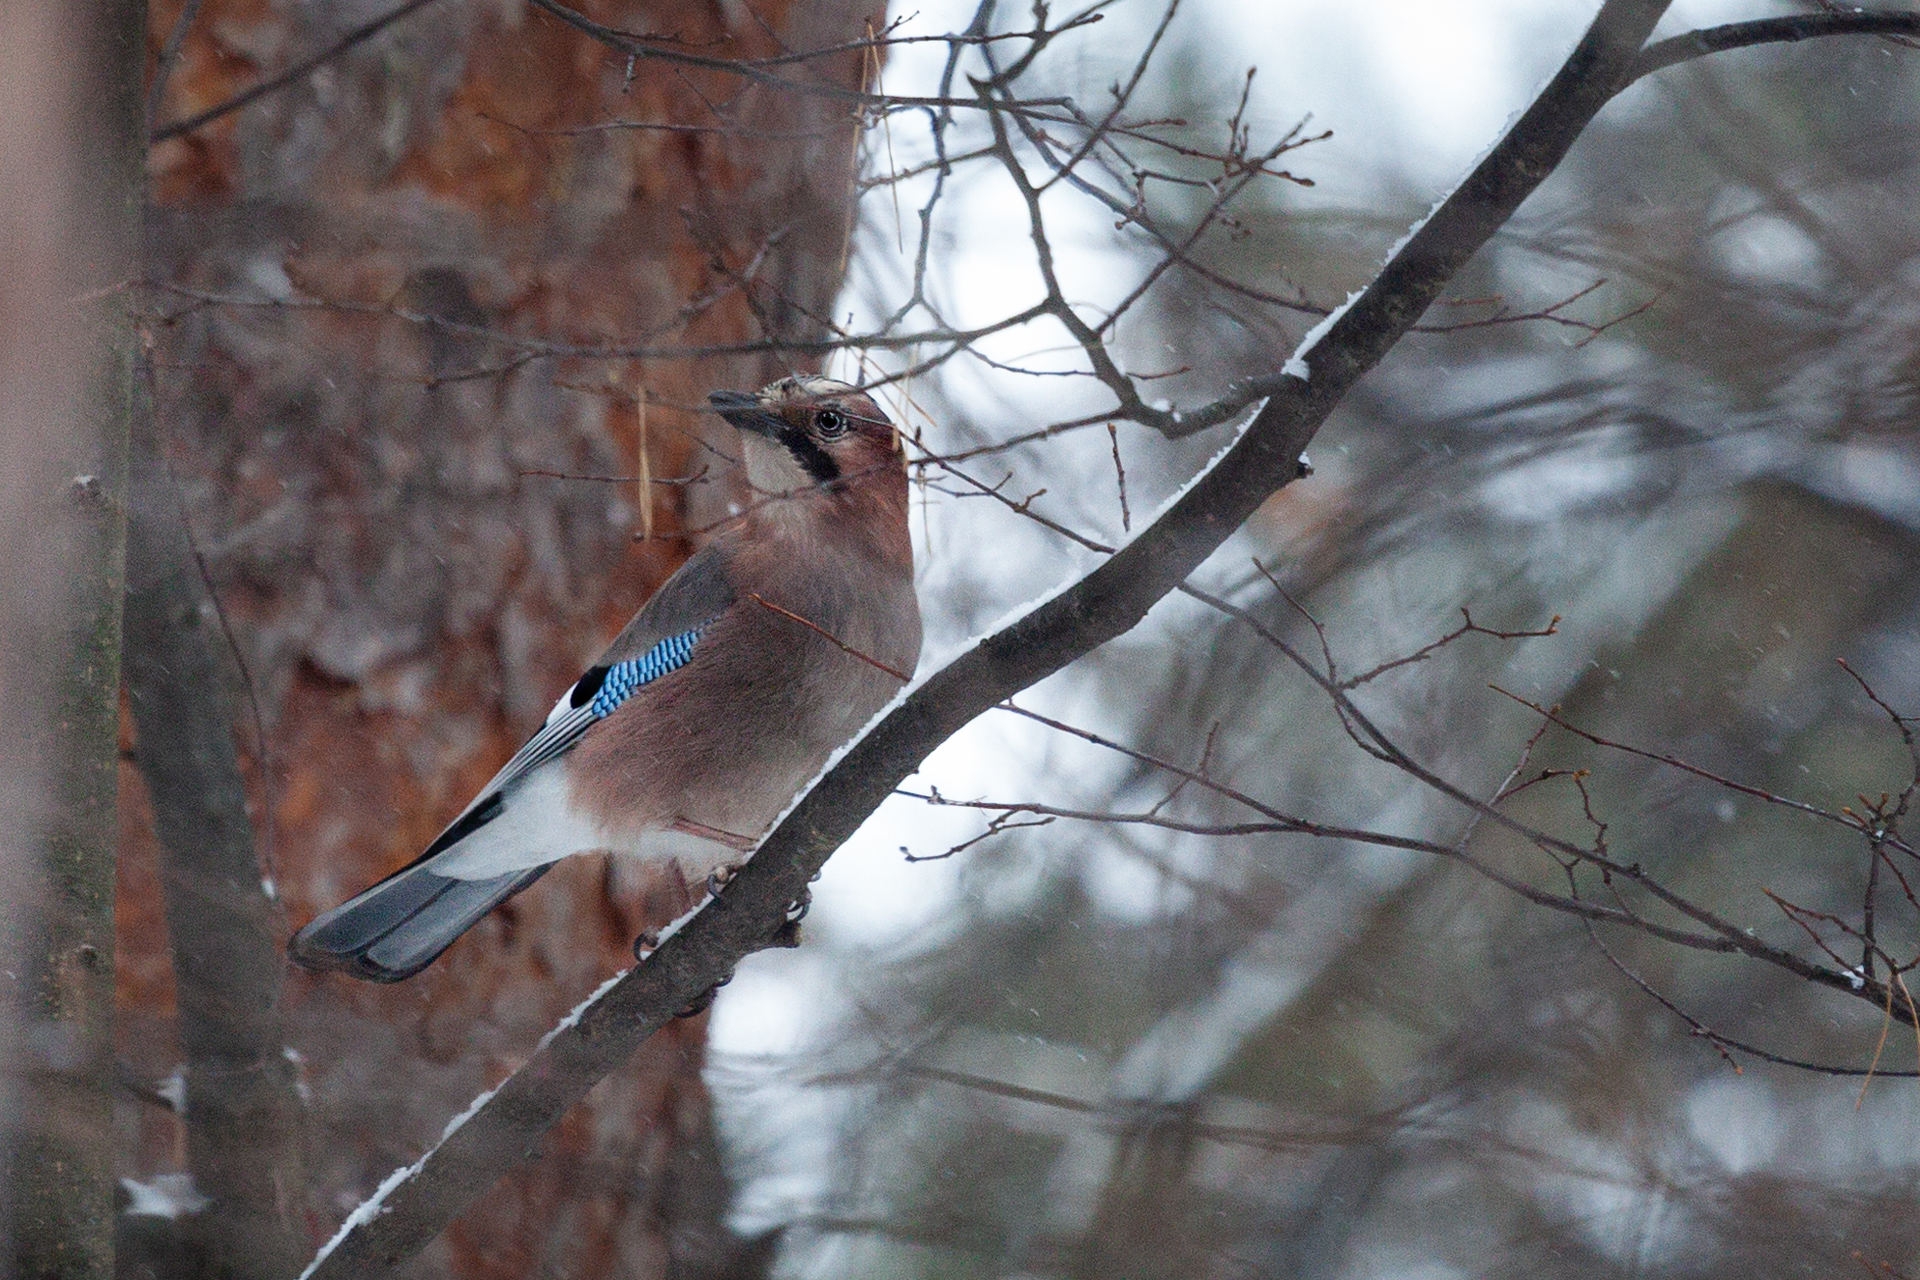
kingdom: Animalia
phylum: Chordata
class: Aves
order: Passeriformes
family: Corvidae
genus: Garrulus
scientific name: Garrulus glandarius
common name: Eurasian jay
